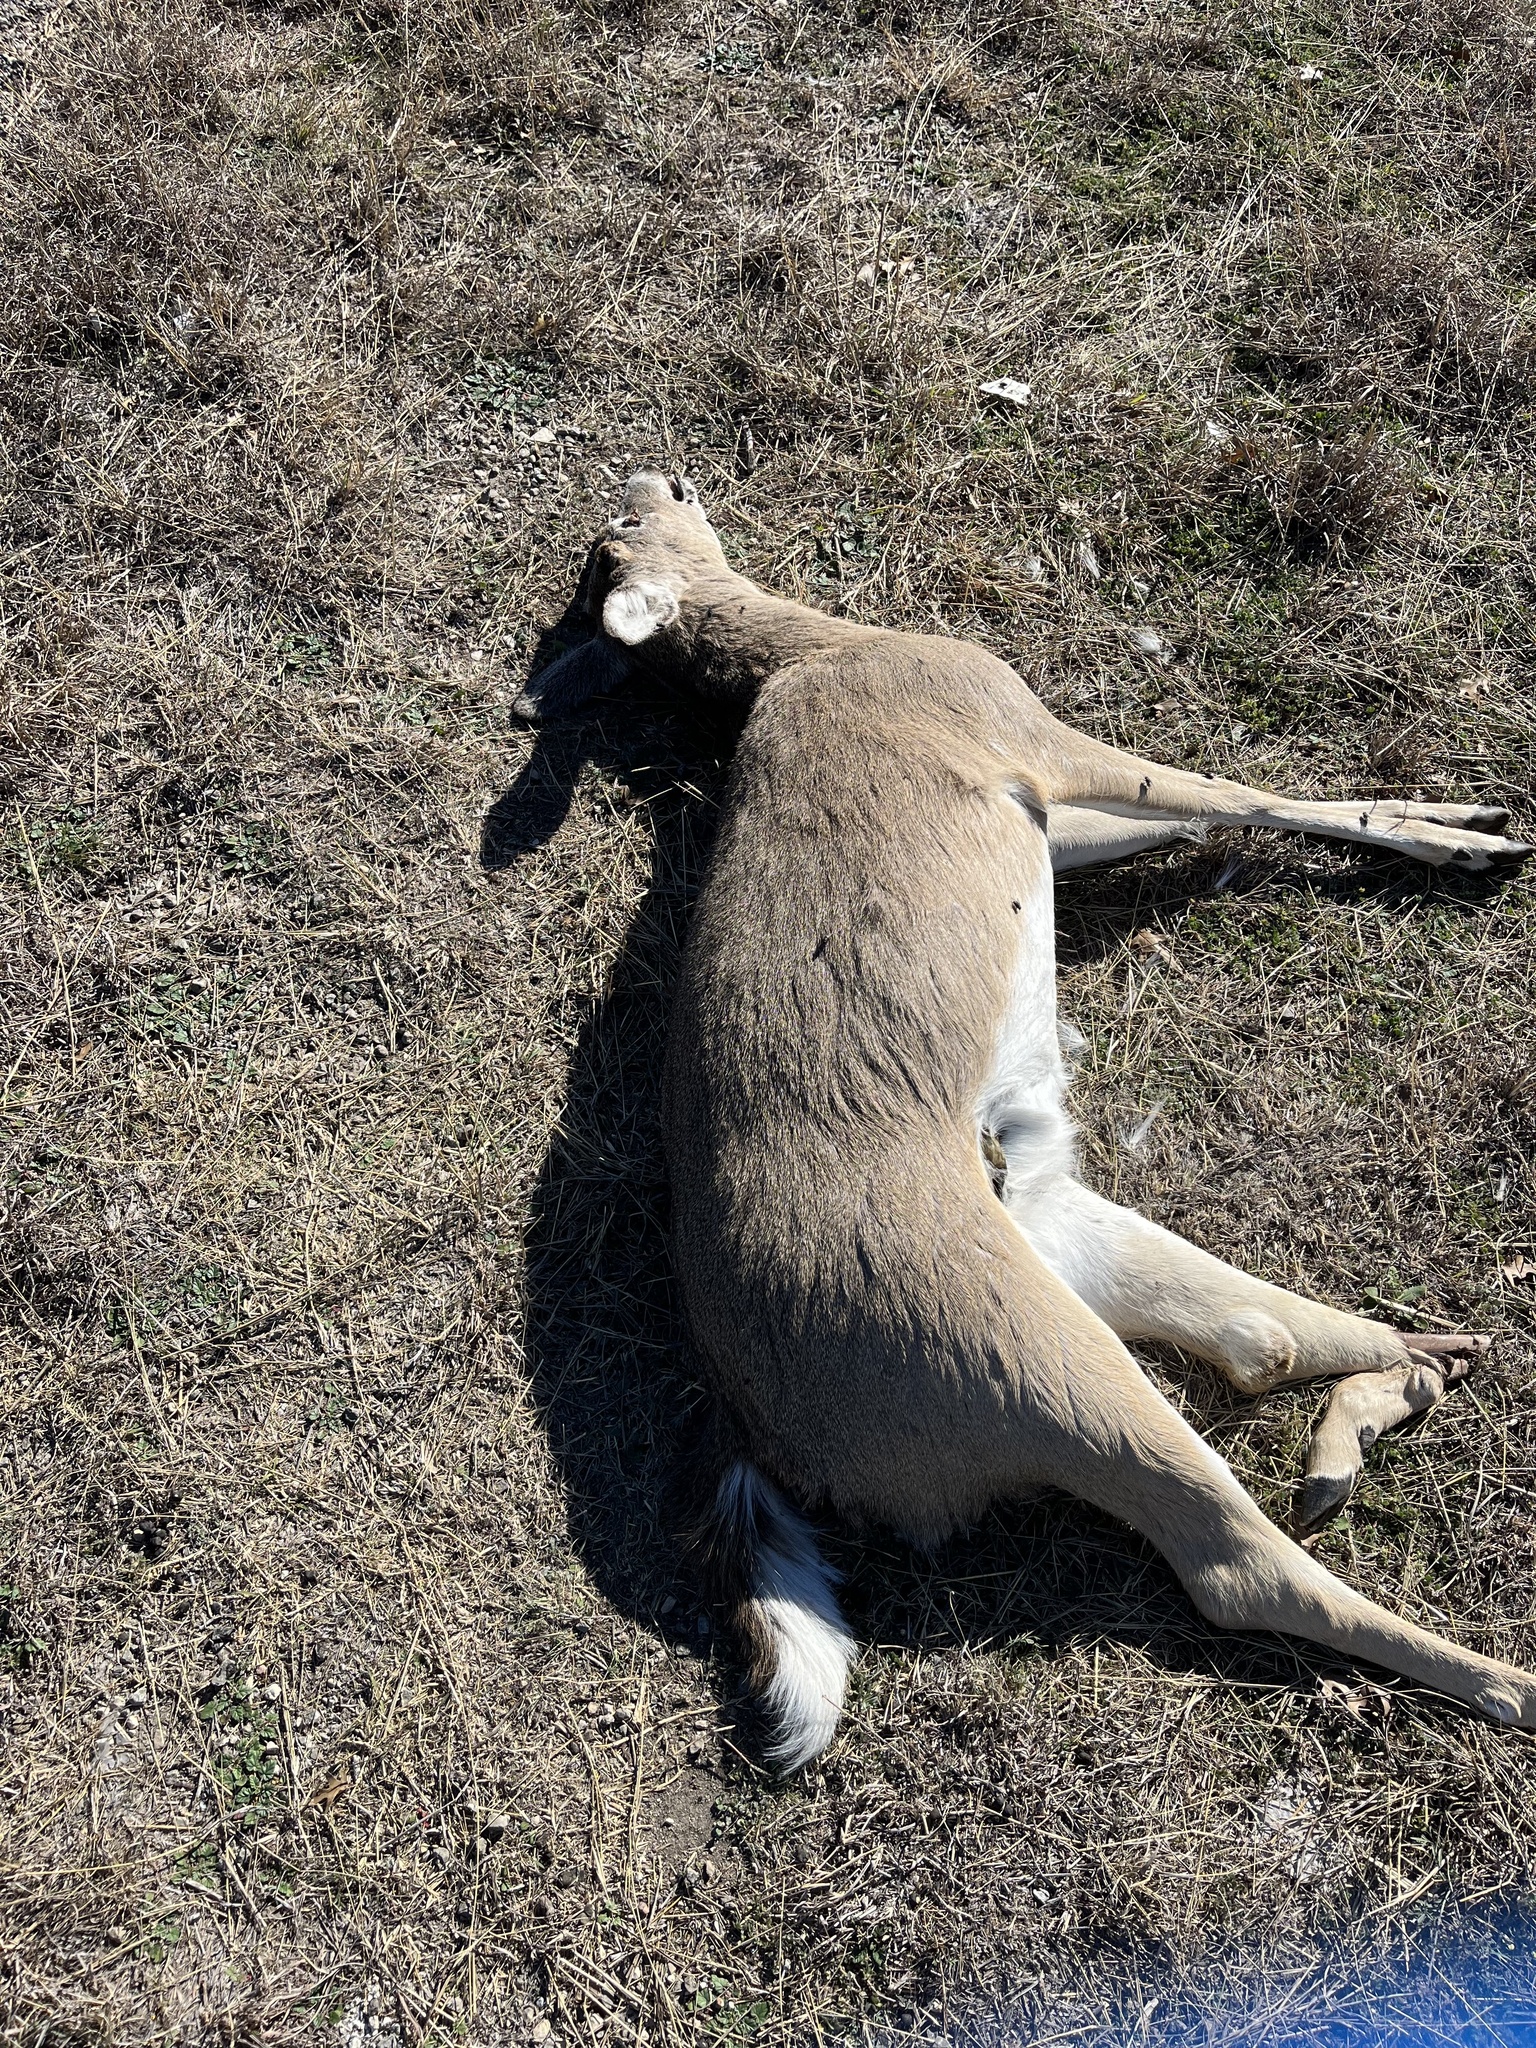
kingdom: Animalia
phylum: Chordata
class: Mammalia
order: Artiodactyla
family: Cervidae
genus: Odocoileus
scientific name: Odocoileus virginianus
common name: White-tailed deer
